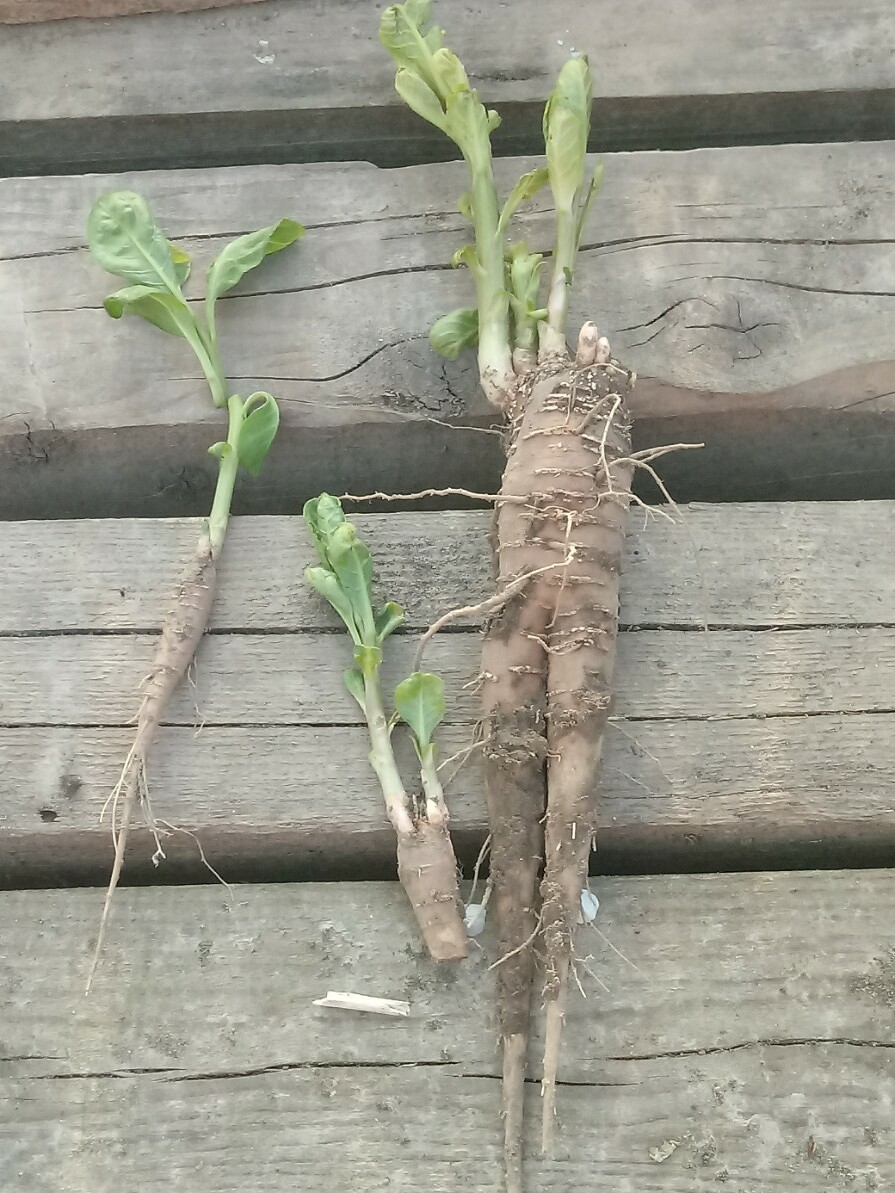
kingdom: Plantae
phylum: Tracheophyta
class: Magnoliopsida
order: Caryophyllales
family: Phytolaccaceae
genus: Phytolacca
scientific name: Phytolacca acinosa
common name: Indian pokeweed
